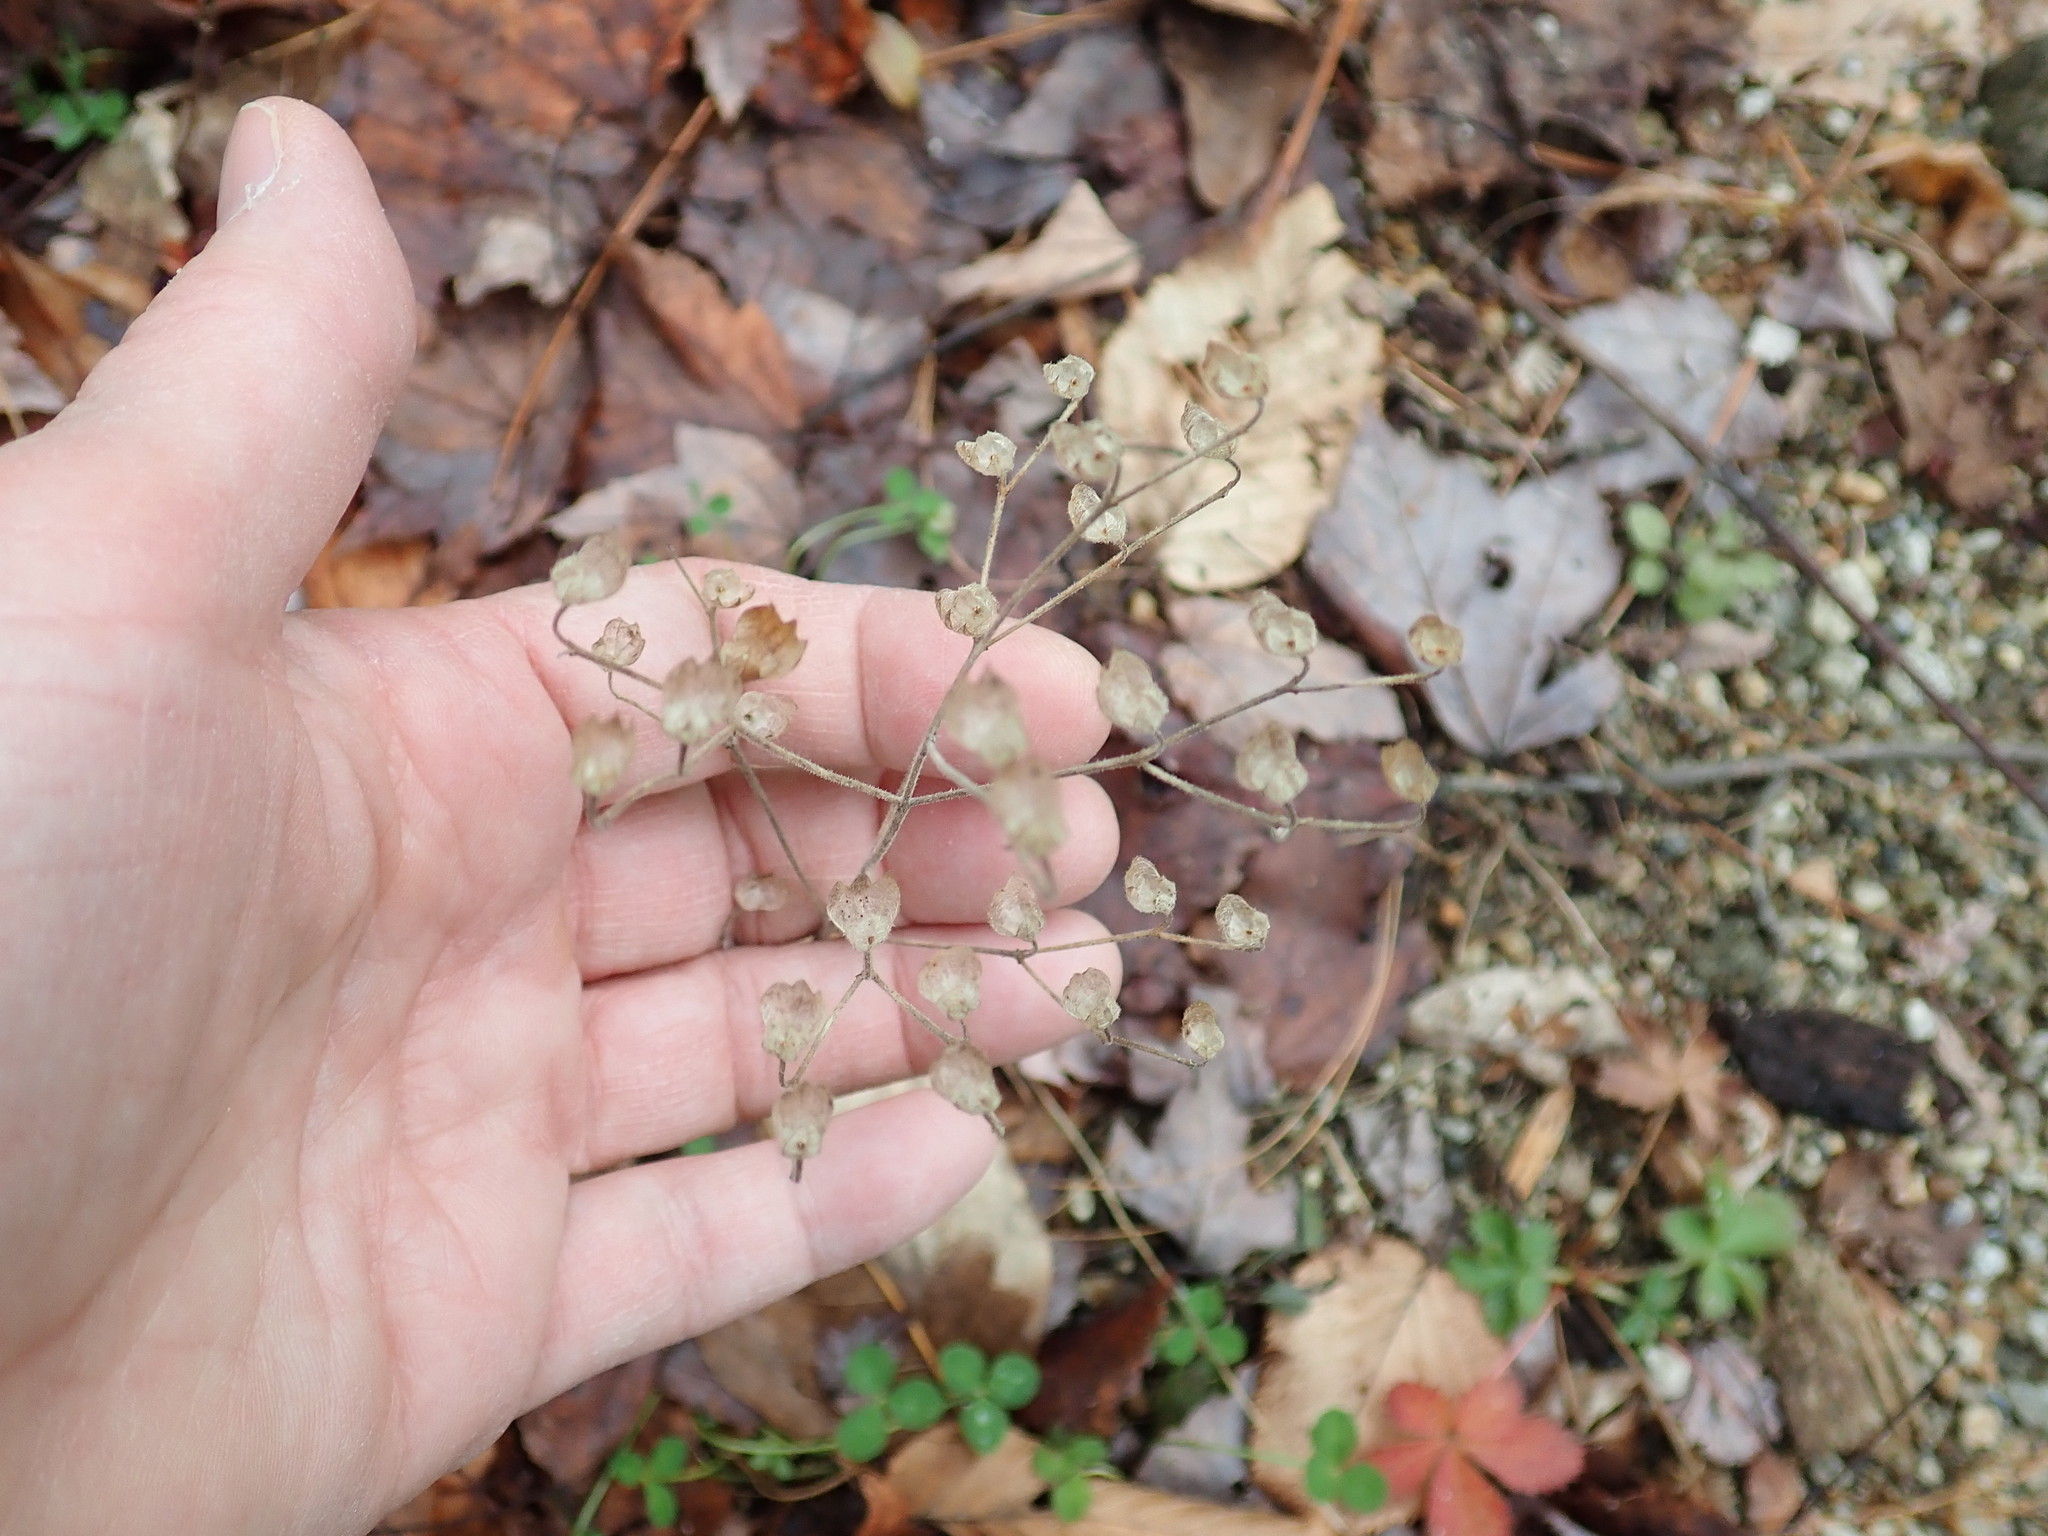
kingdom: Plantae
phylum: Tracheophyta
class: Magnoliopsida
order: Lamiales
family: Lamiaceae
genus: Trichostema
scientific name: Trichostema dichotomum
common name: Bastard pennyroyal
